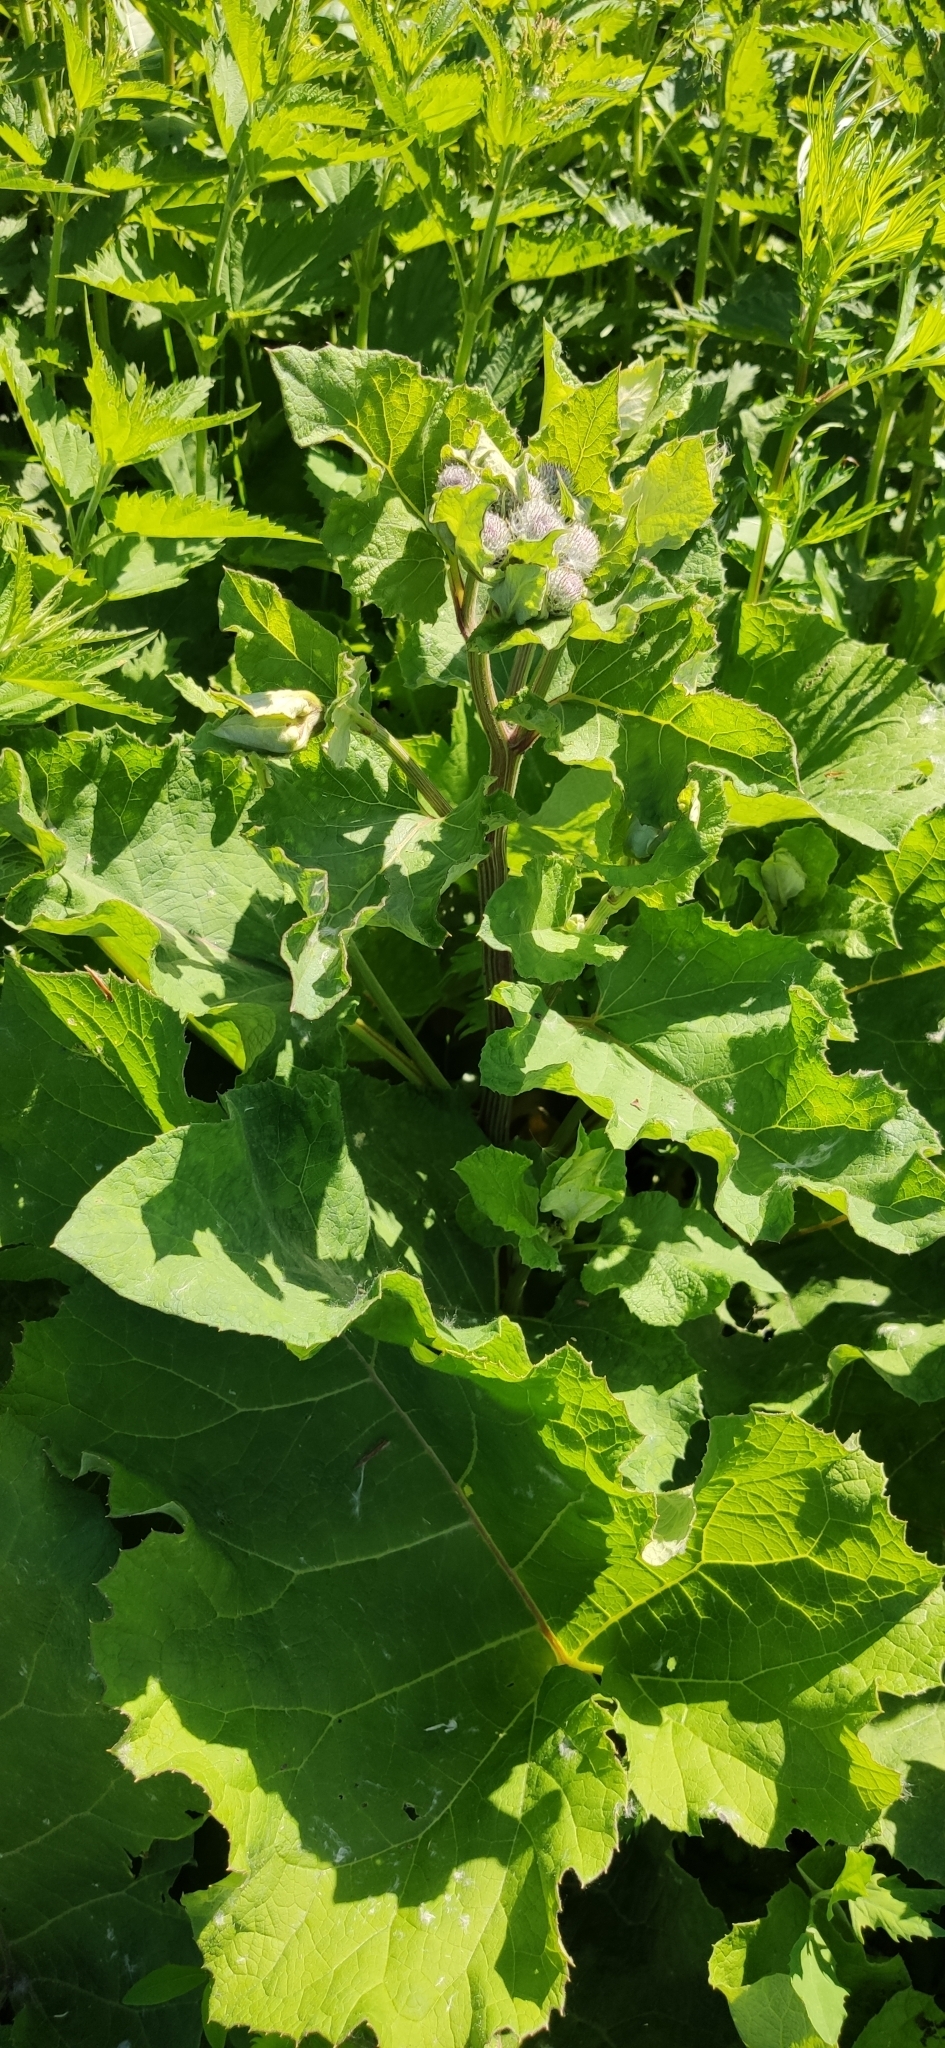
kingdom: Plantae
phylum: Tracheophyta
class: Magnoliopsida
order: Asterales
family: Asteraceae
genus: Arctium
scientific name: Arctium tomentosum
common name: Woolly burdock
